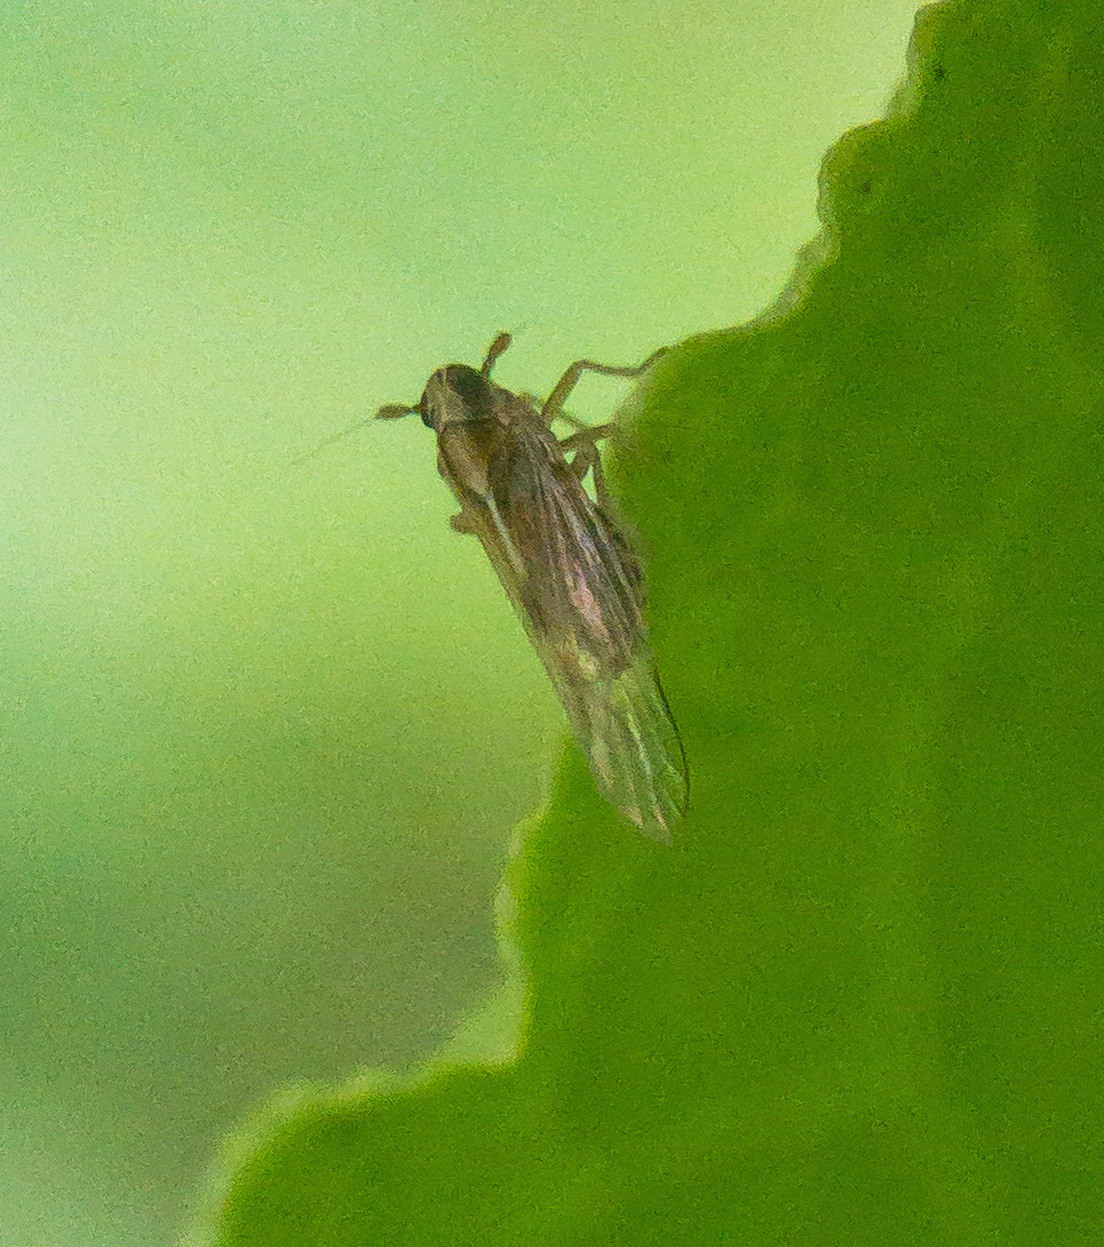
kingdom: Animalia
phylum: Arthropoda
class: Insecta
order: Hemiptera
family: Delphacidae
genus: Muellerianella
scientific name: Muellerianella laminalis
